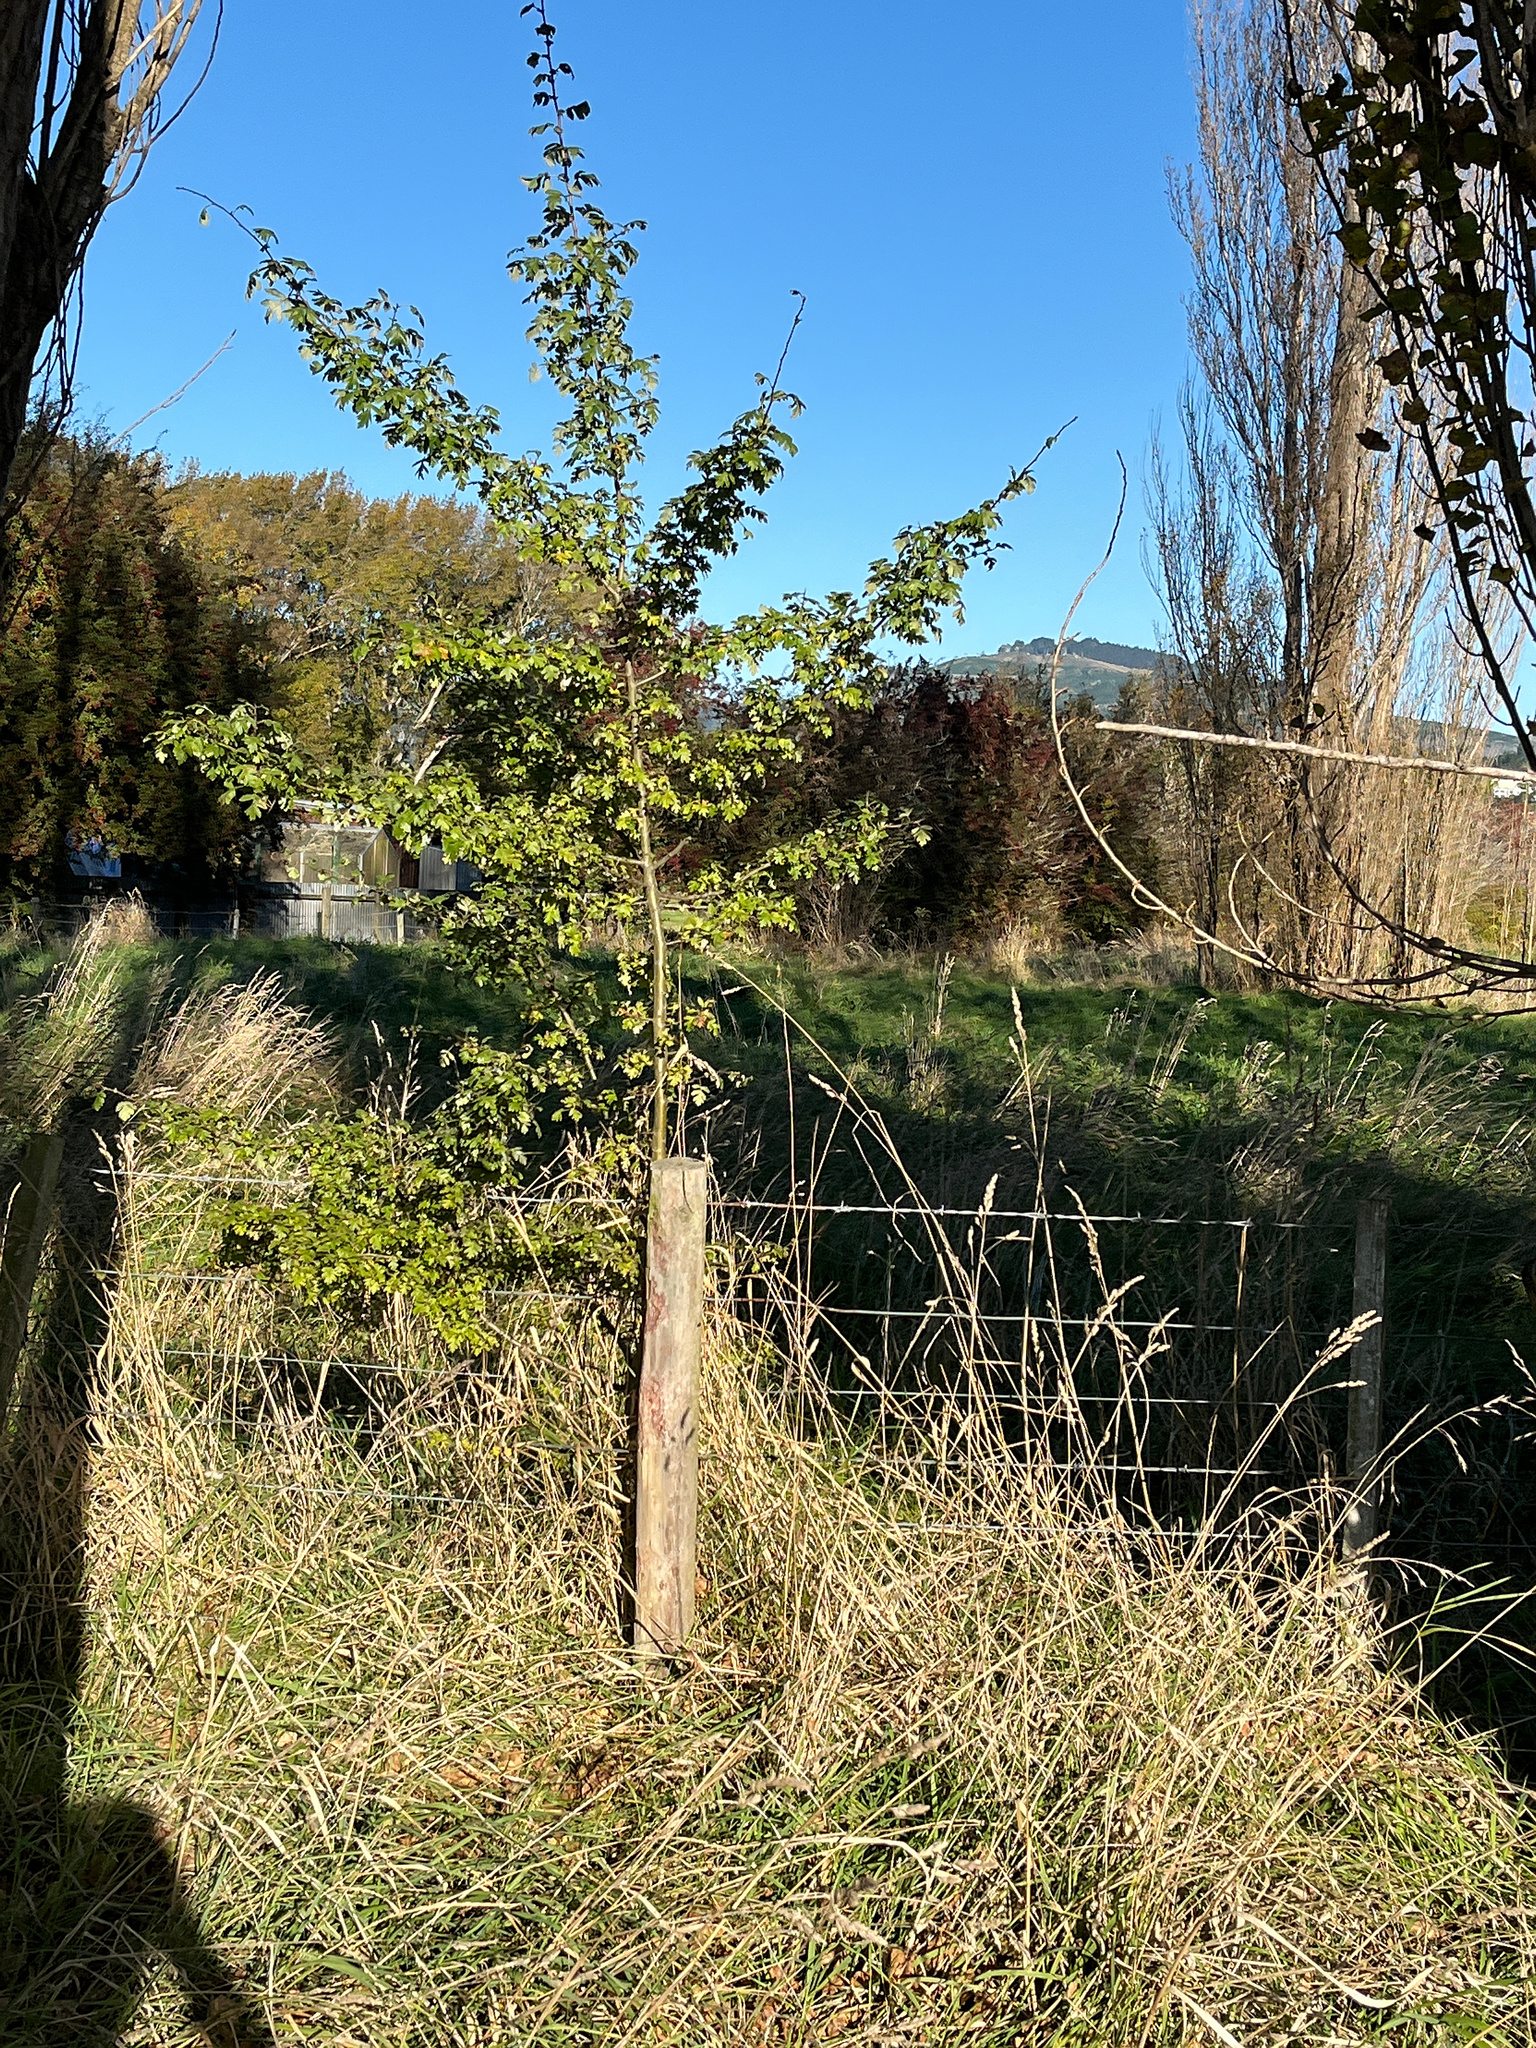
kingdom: Plantae
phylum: Tracheophyta
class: Magnoliopsida
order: Rosales
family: Rosaceae
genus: Crataegus
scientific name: Crataegus monogyna
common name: Hawthorn
